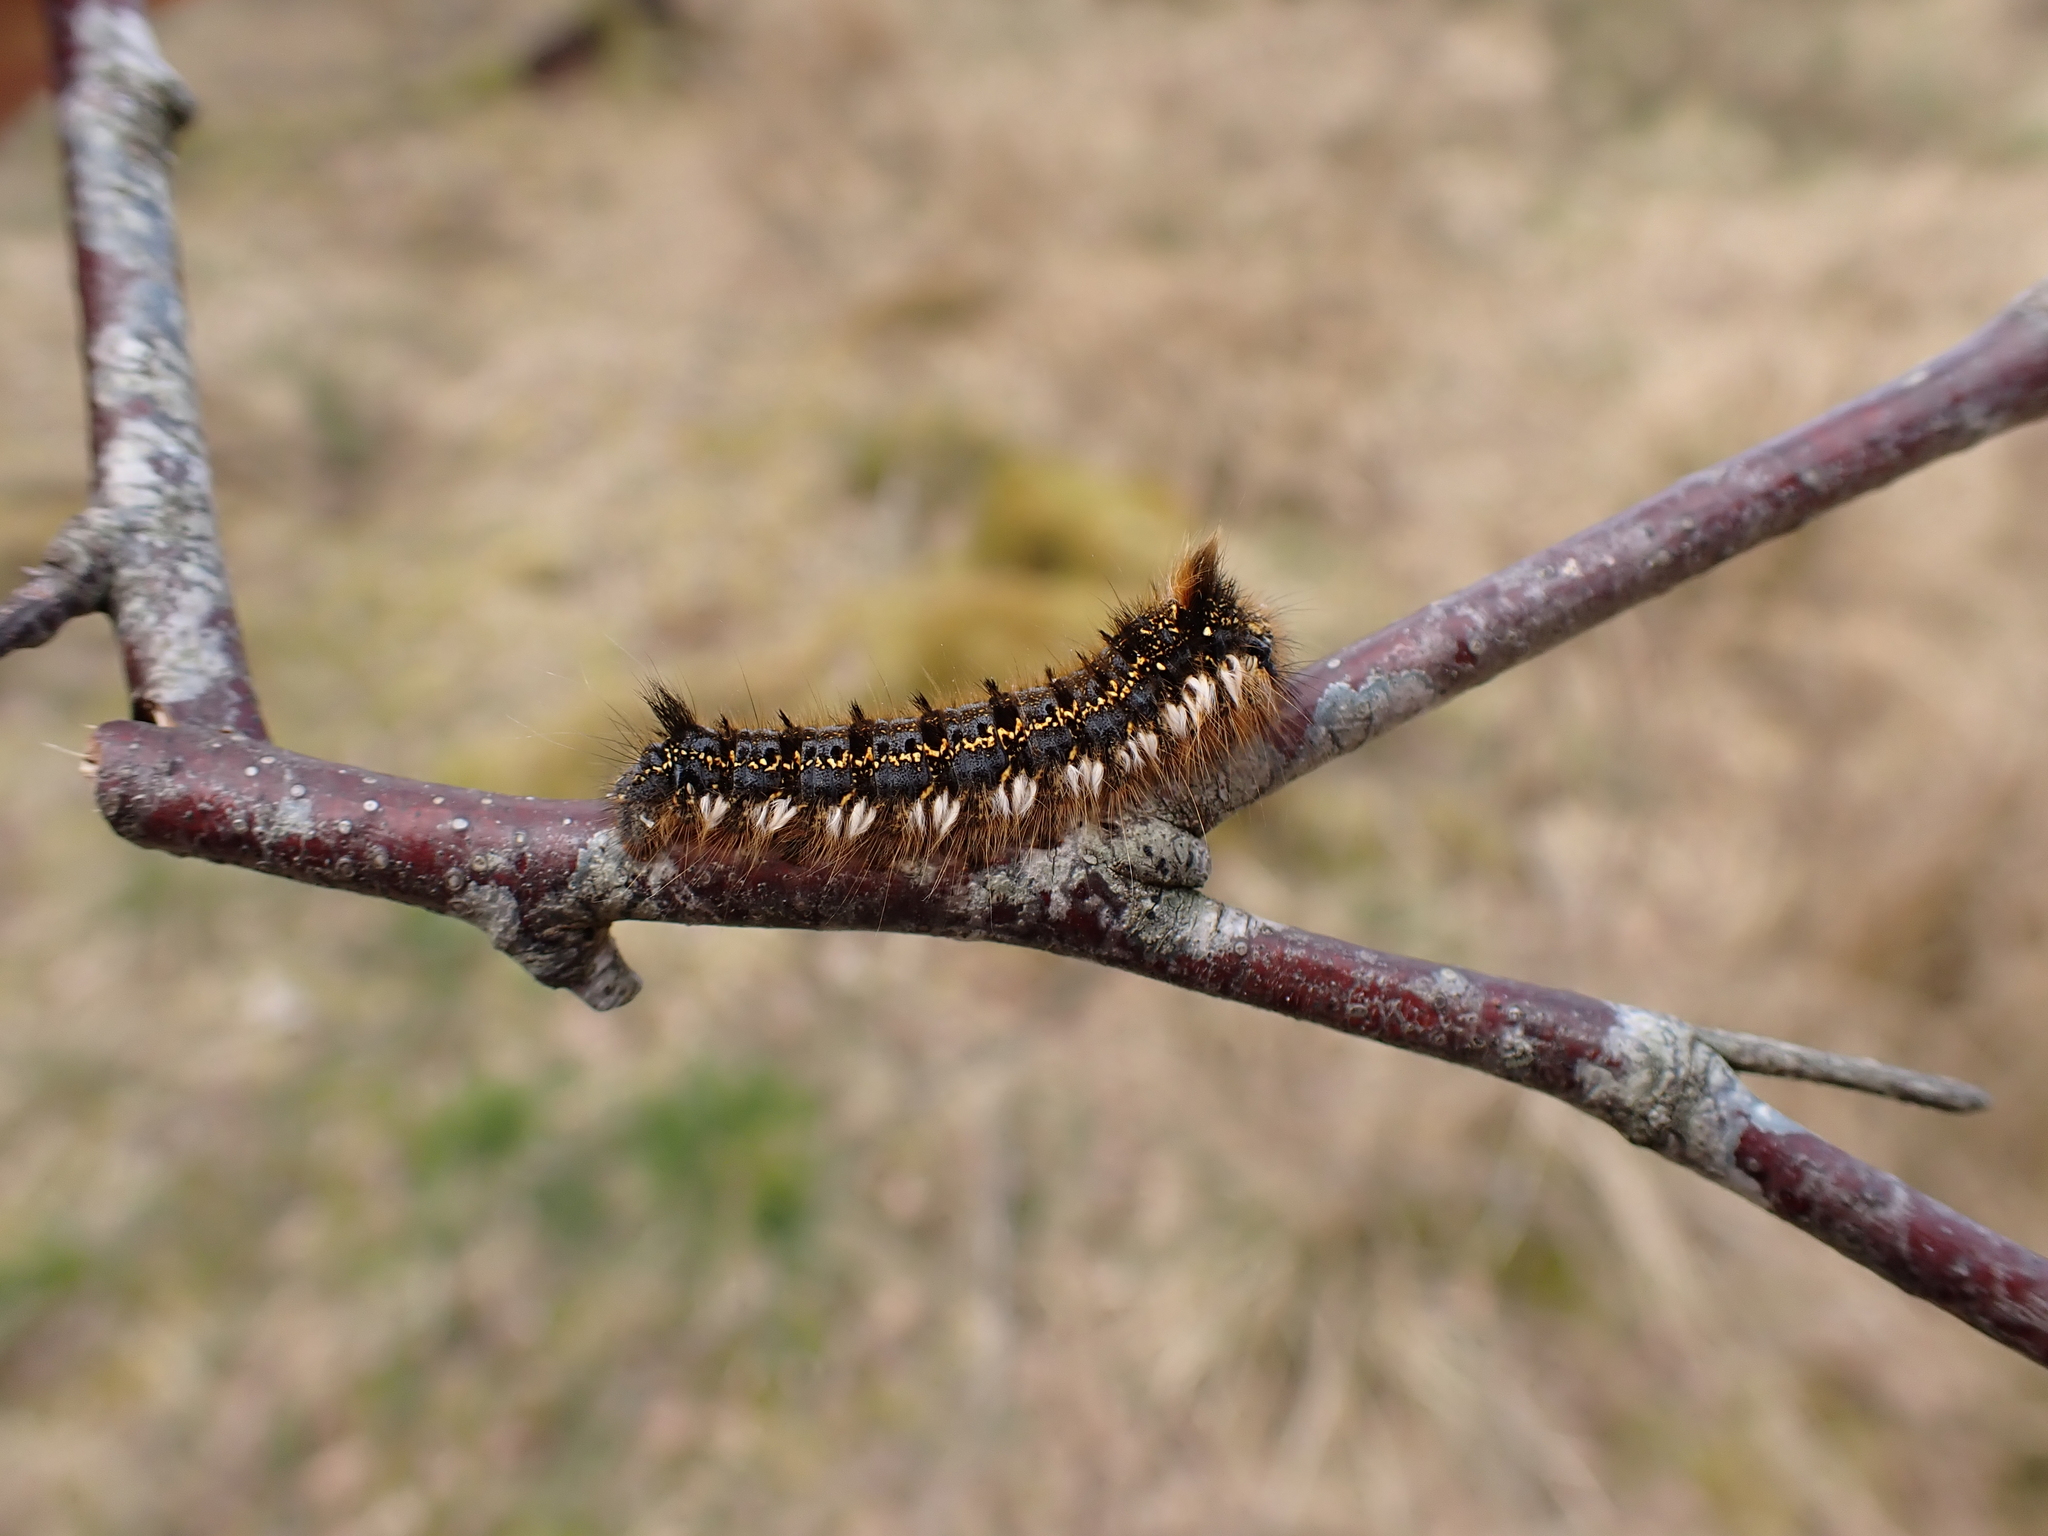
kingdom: Animalia
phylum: Arthropoda
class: Insecta
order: Lepidoptera
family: Lasiocampidae
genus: Euthrix
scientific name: Euthrix potatoria
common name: Drinker
